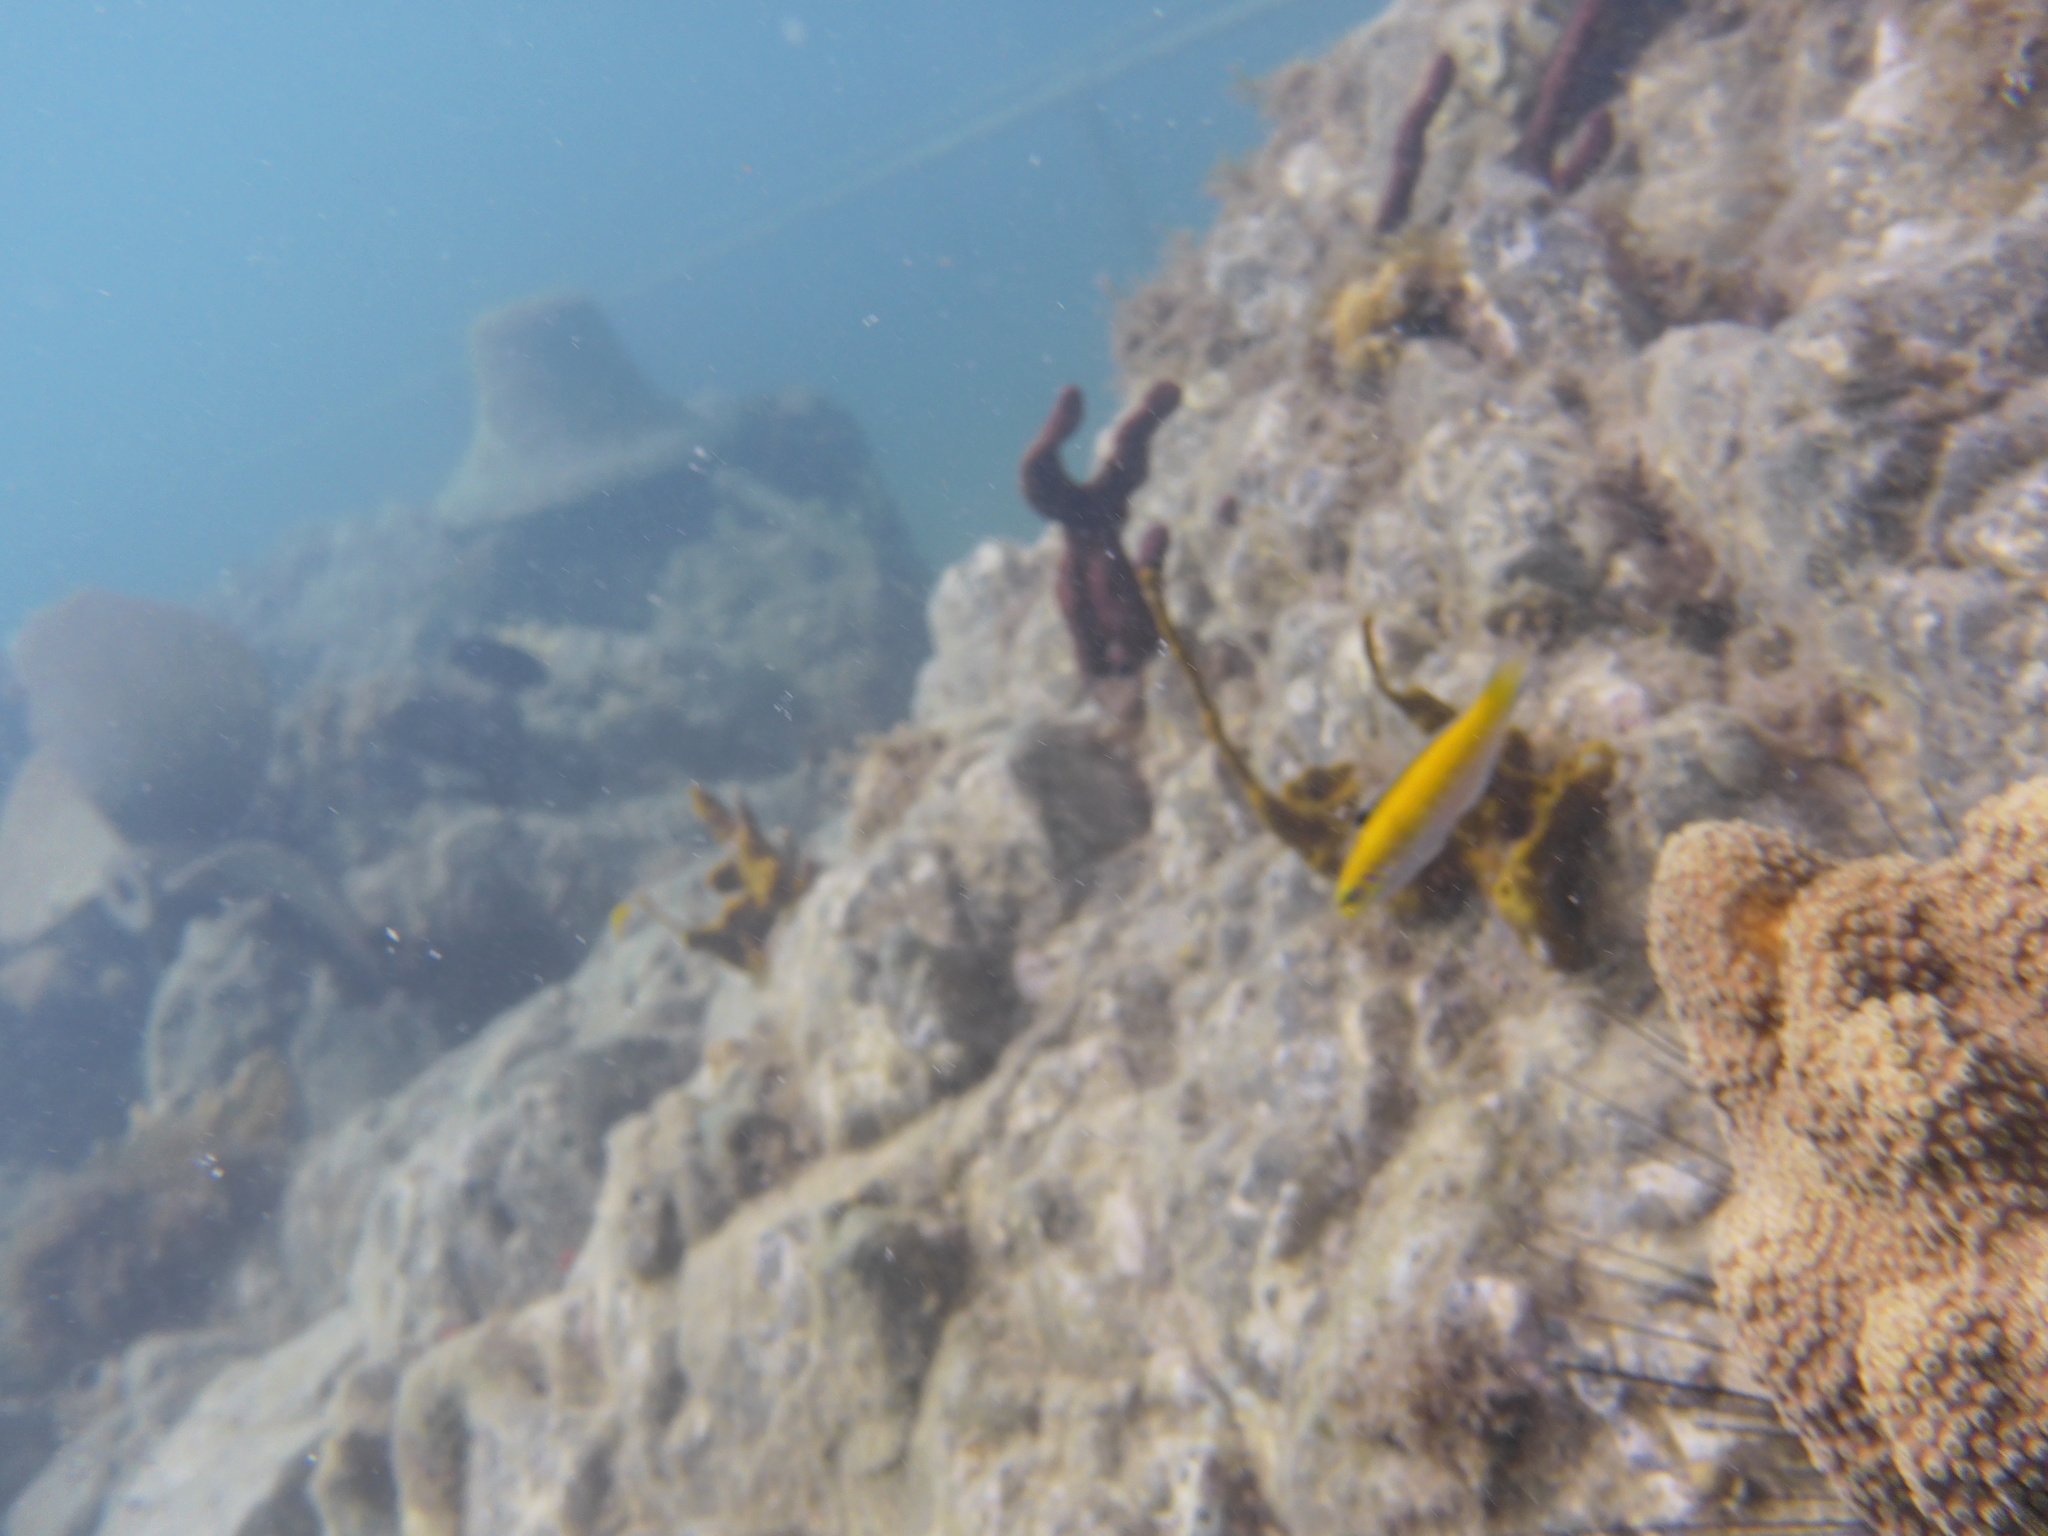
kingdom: Animalia
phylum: Chordata
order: Perciformes
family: Labridae
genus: Thalassoma
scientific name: Thalassoma bifasciatum
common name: Bluehead wrasse
